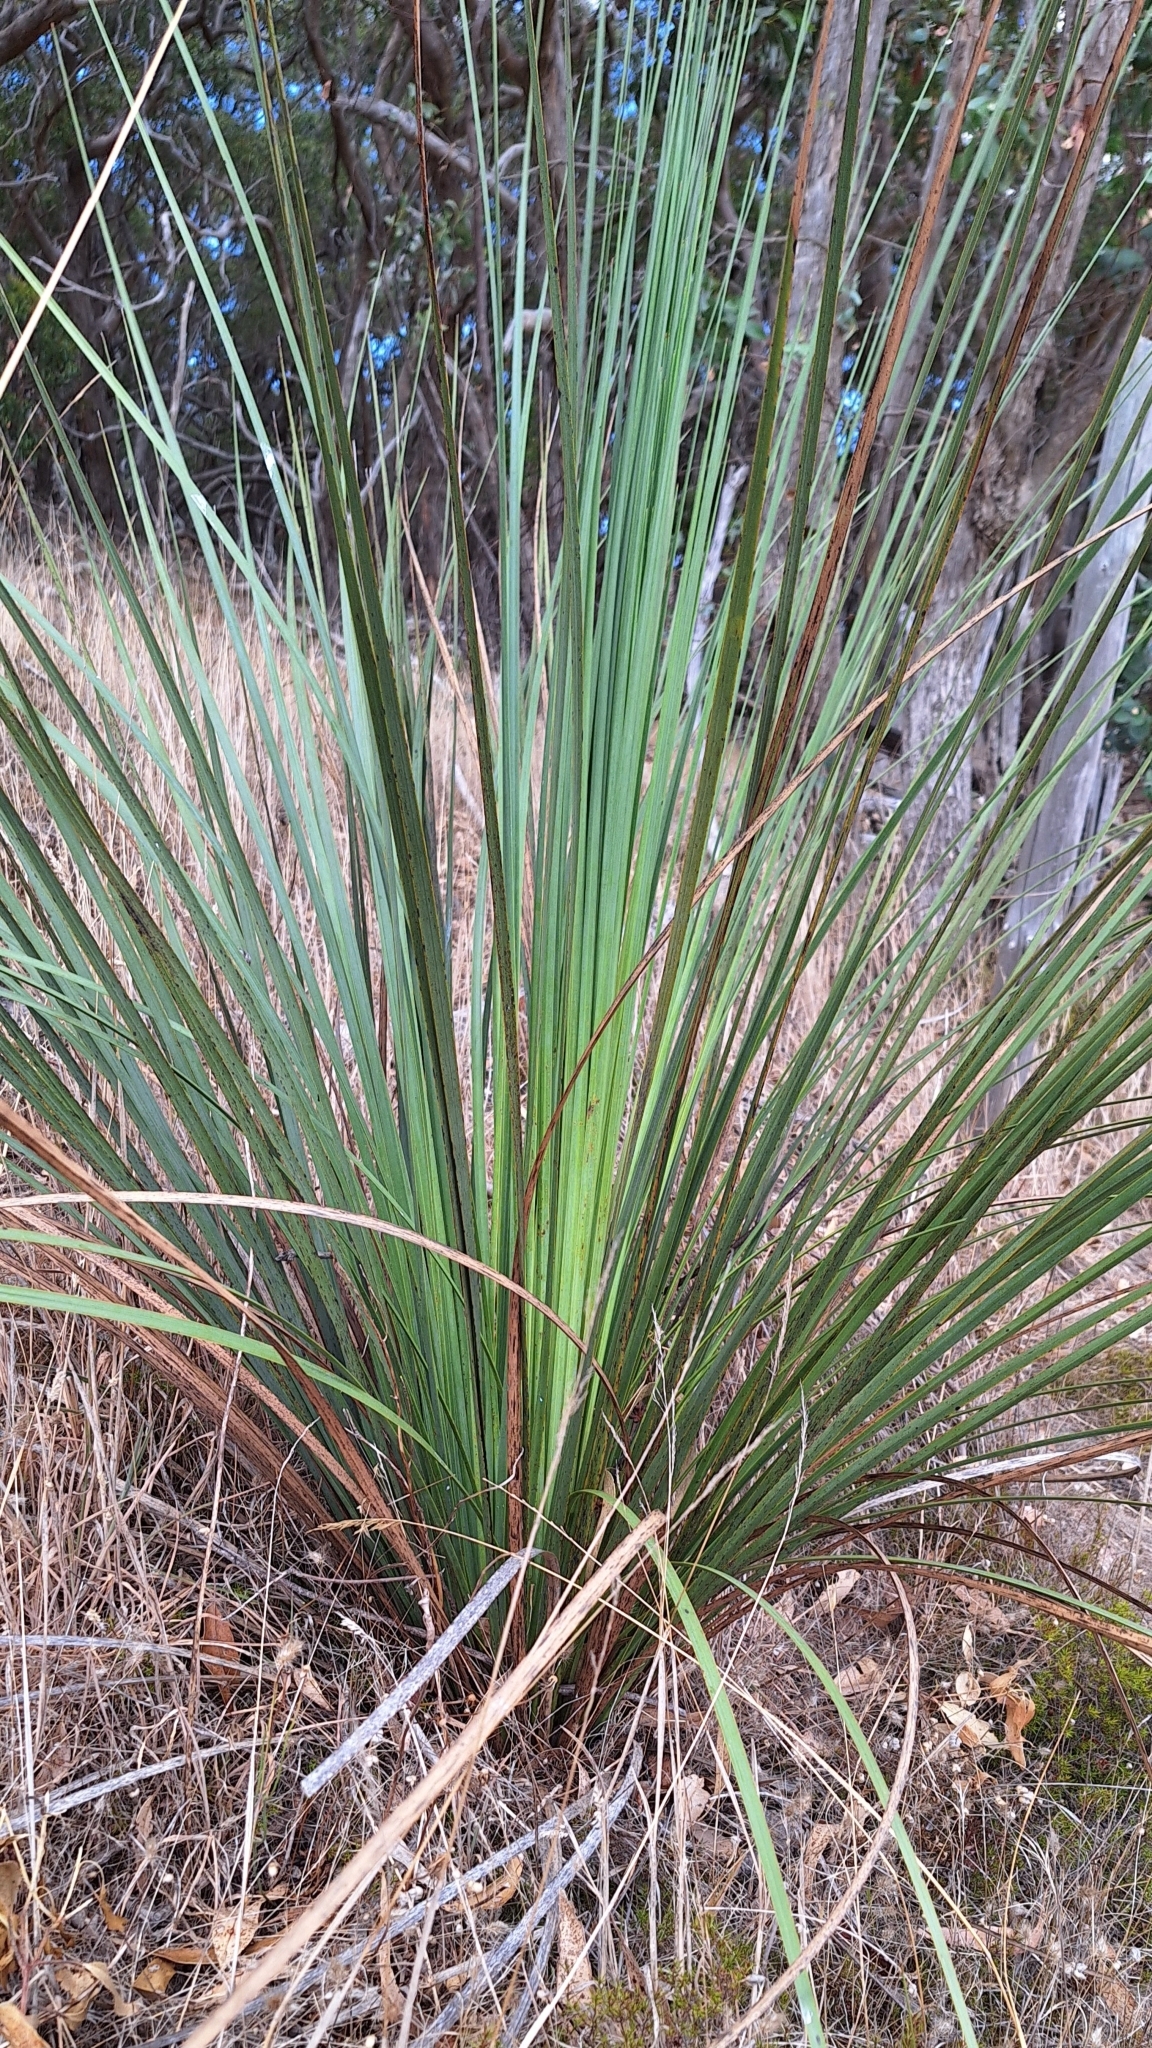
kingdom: Plantae
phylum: Tracheophyta
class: Liliopsida
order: Asparagales
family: Asphodelaceae
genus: Xanthorrhoea
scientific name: Xanthorrhoea semiplana
